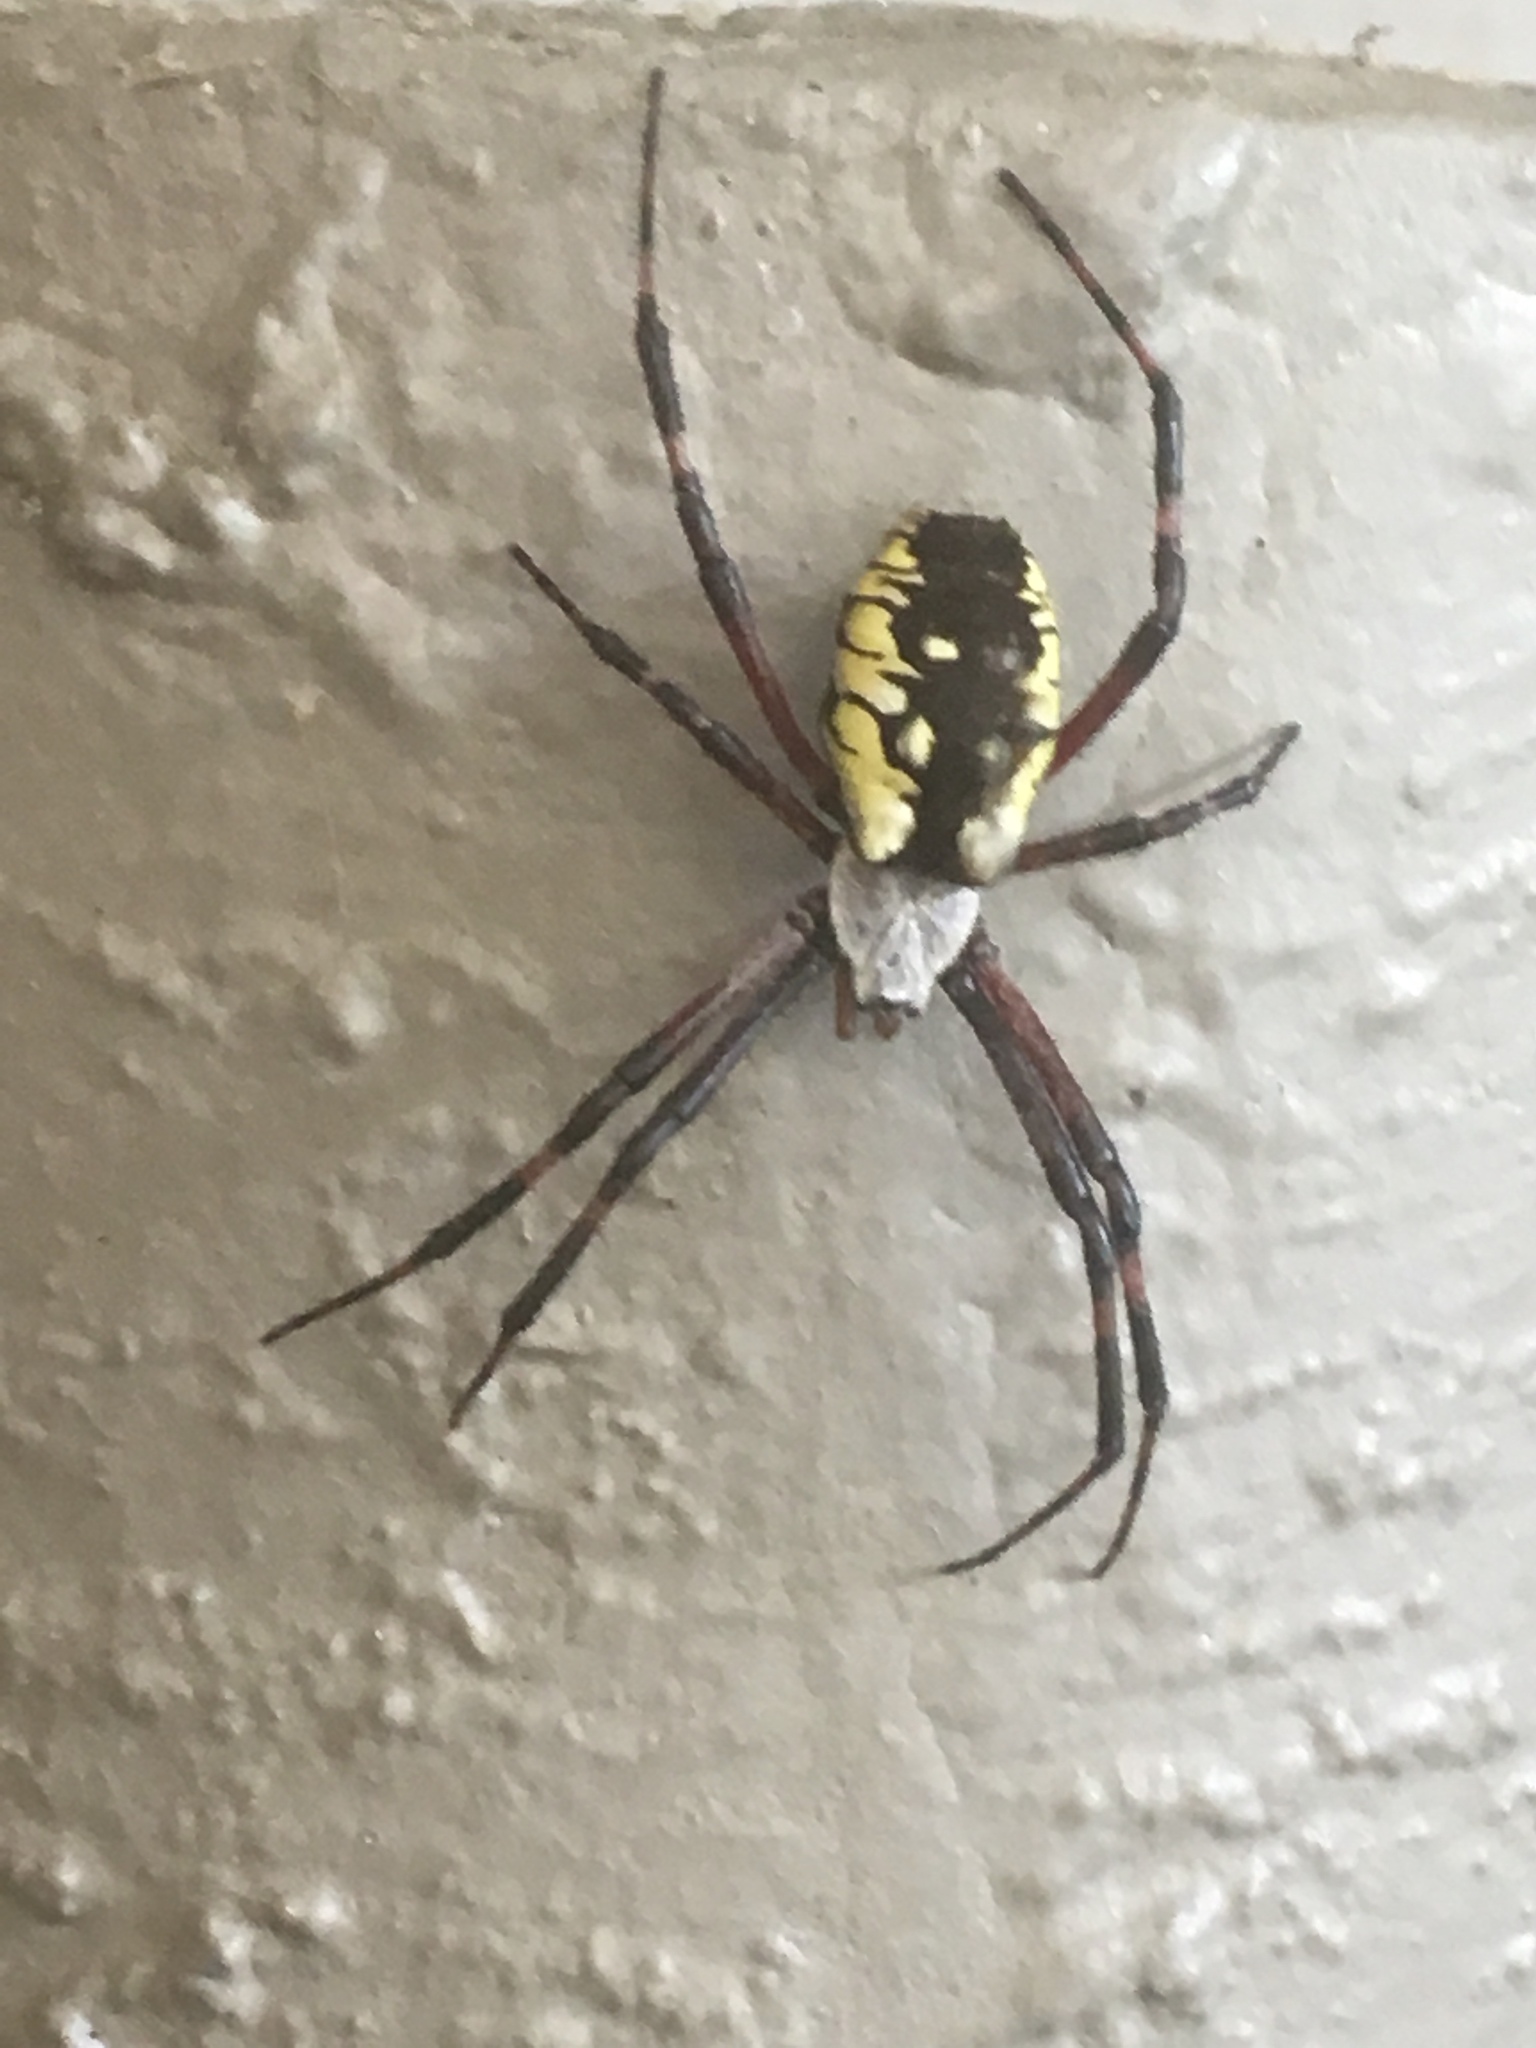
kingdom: Animalia
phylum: Arthropoda
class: Arachnida
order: Araneae
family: Araneidae
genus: Argiope
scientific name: Argiope aurantia
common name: Orb weavers
